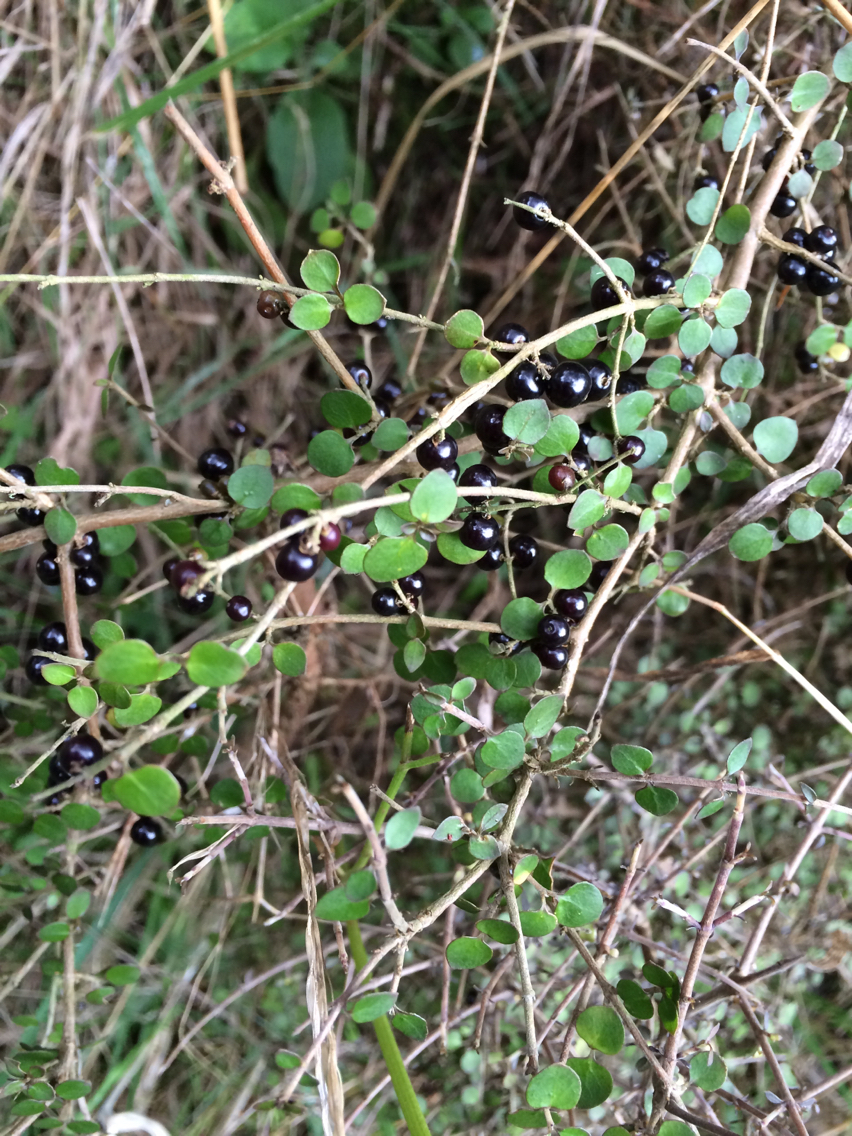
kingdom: Plantae
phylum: Tracheophyta
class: Magnoliopsida
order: Gentianales
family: Rubiaceae
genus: Coprosma
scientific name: Coprosma rhamnoides
